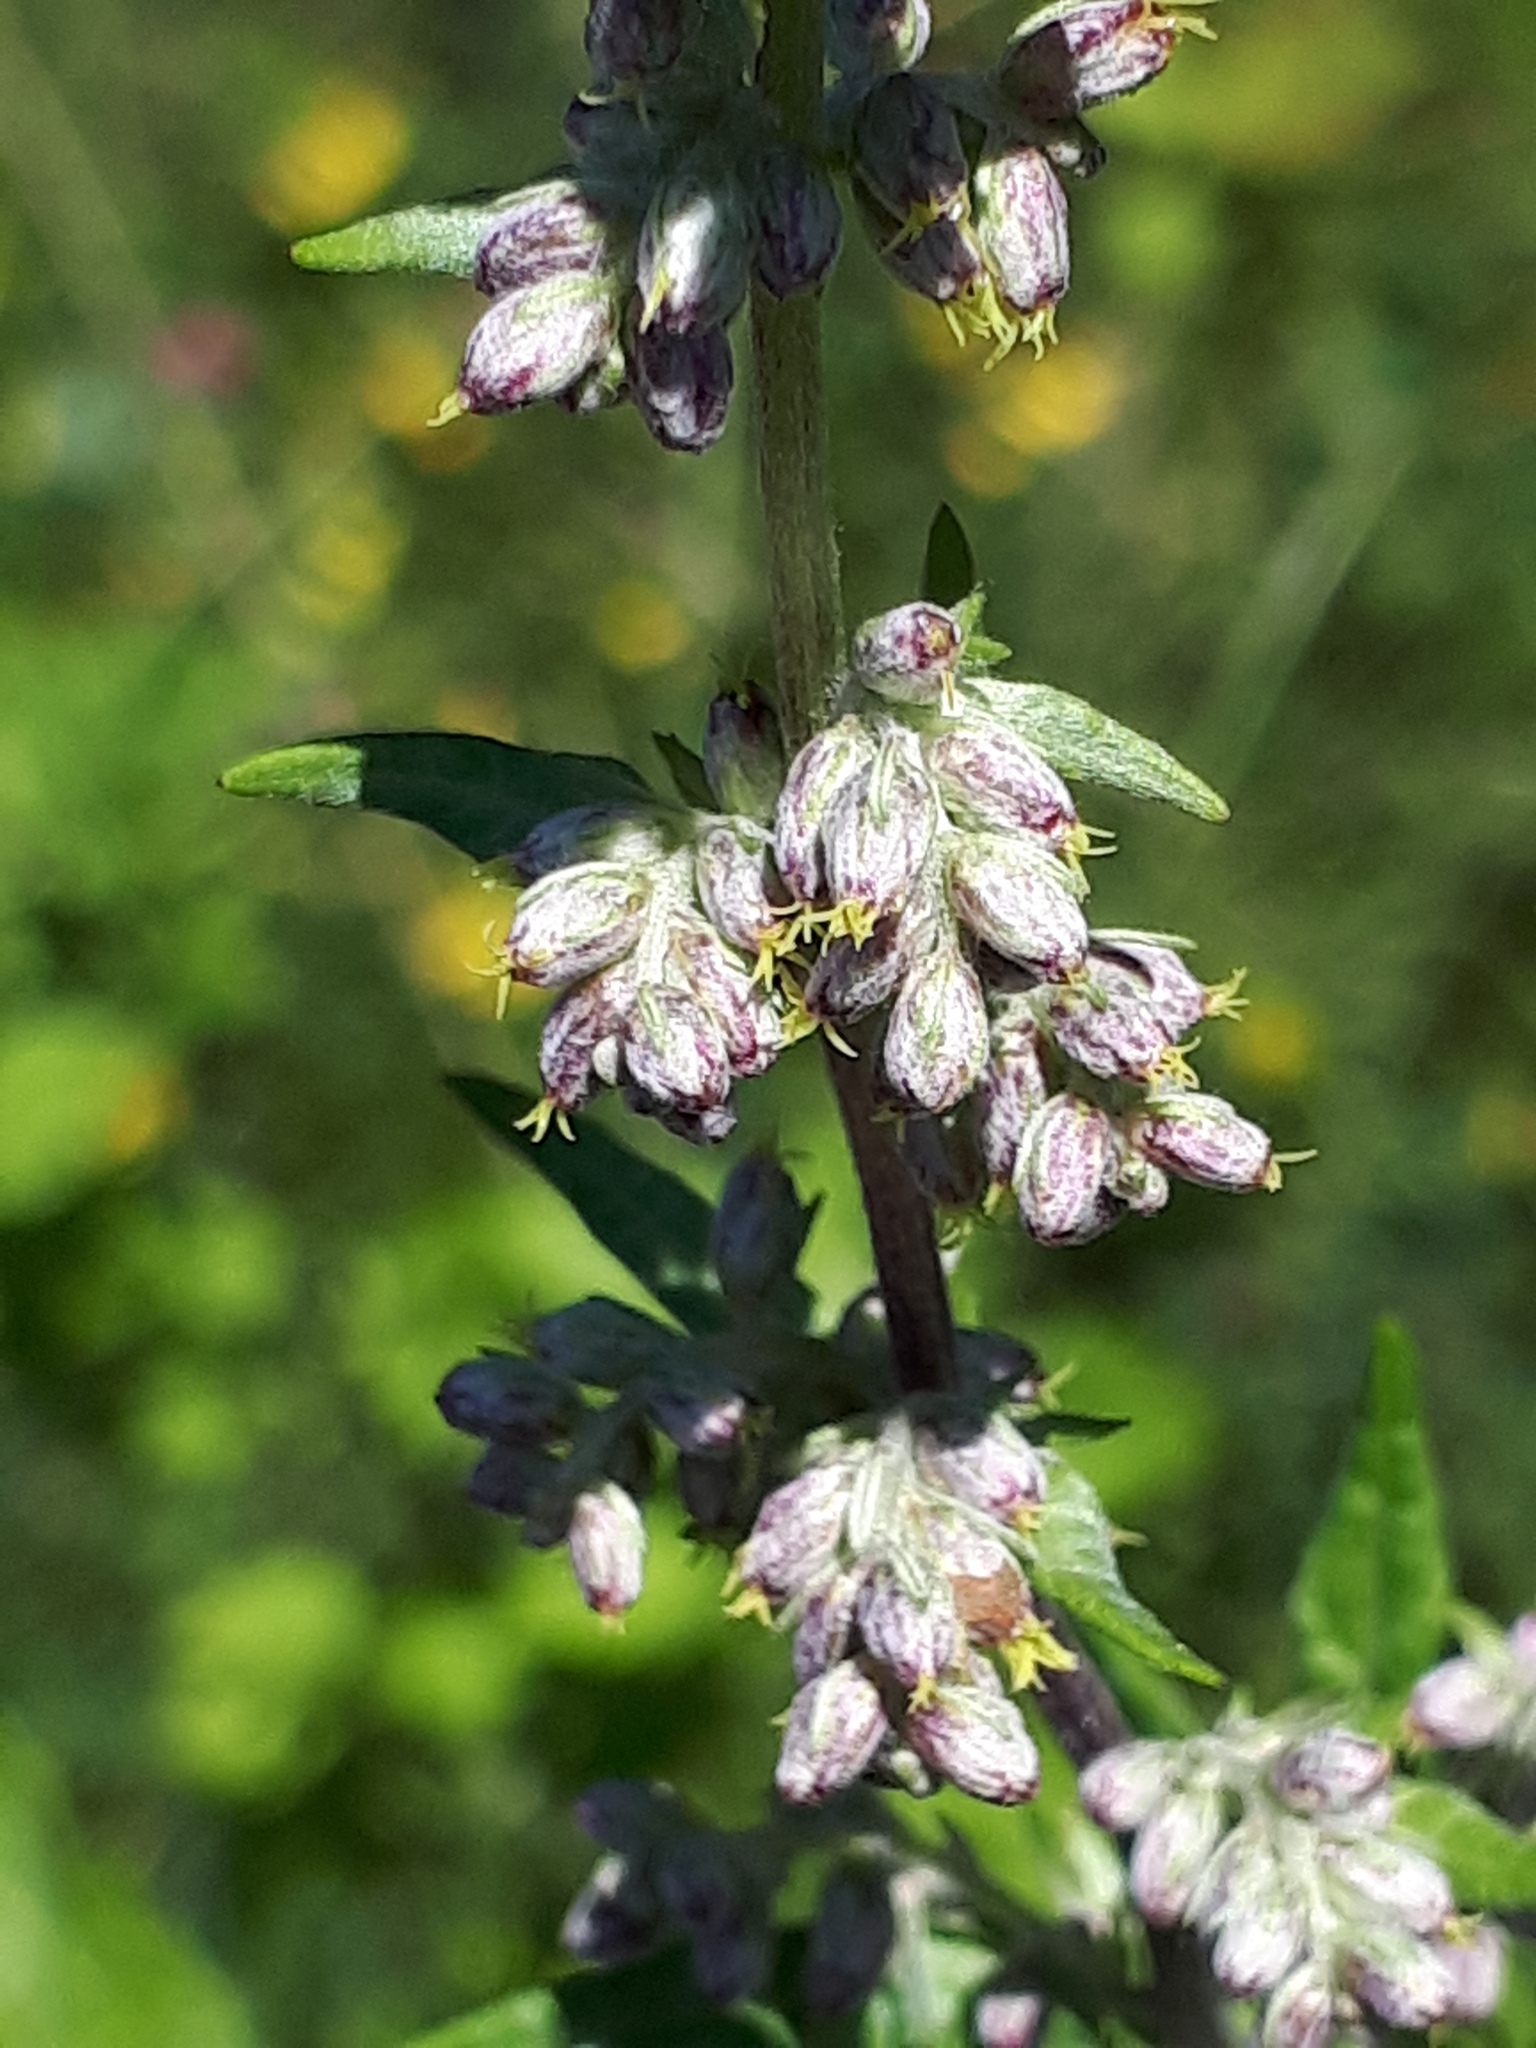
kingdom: Plantae
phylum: Tracheophyta
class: Magnoliopsida
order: Asterales
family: Asteraceae
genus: Artemisia
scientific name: Artemisia vulgaris
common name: Mugwort
